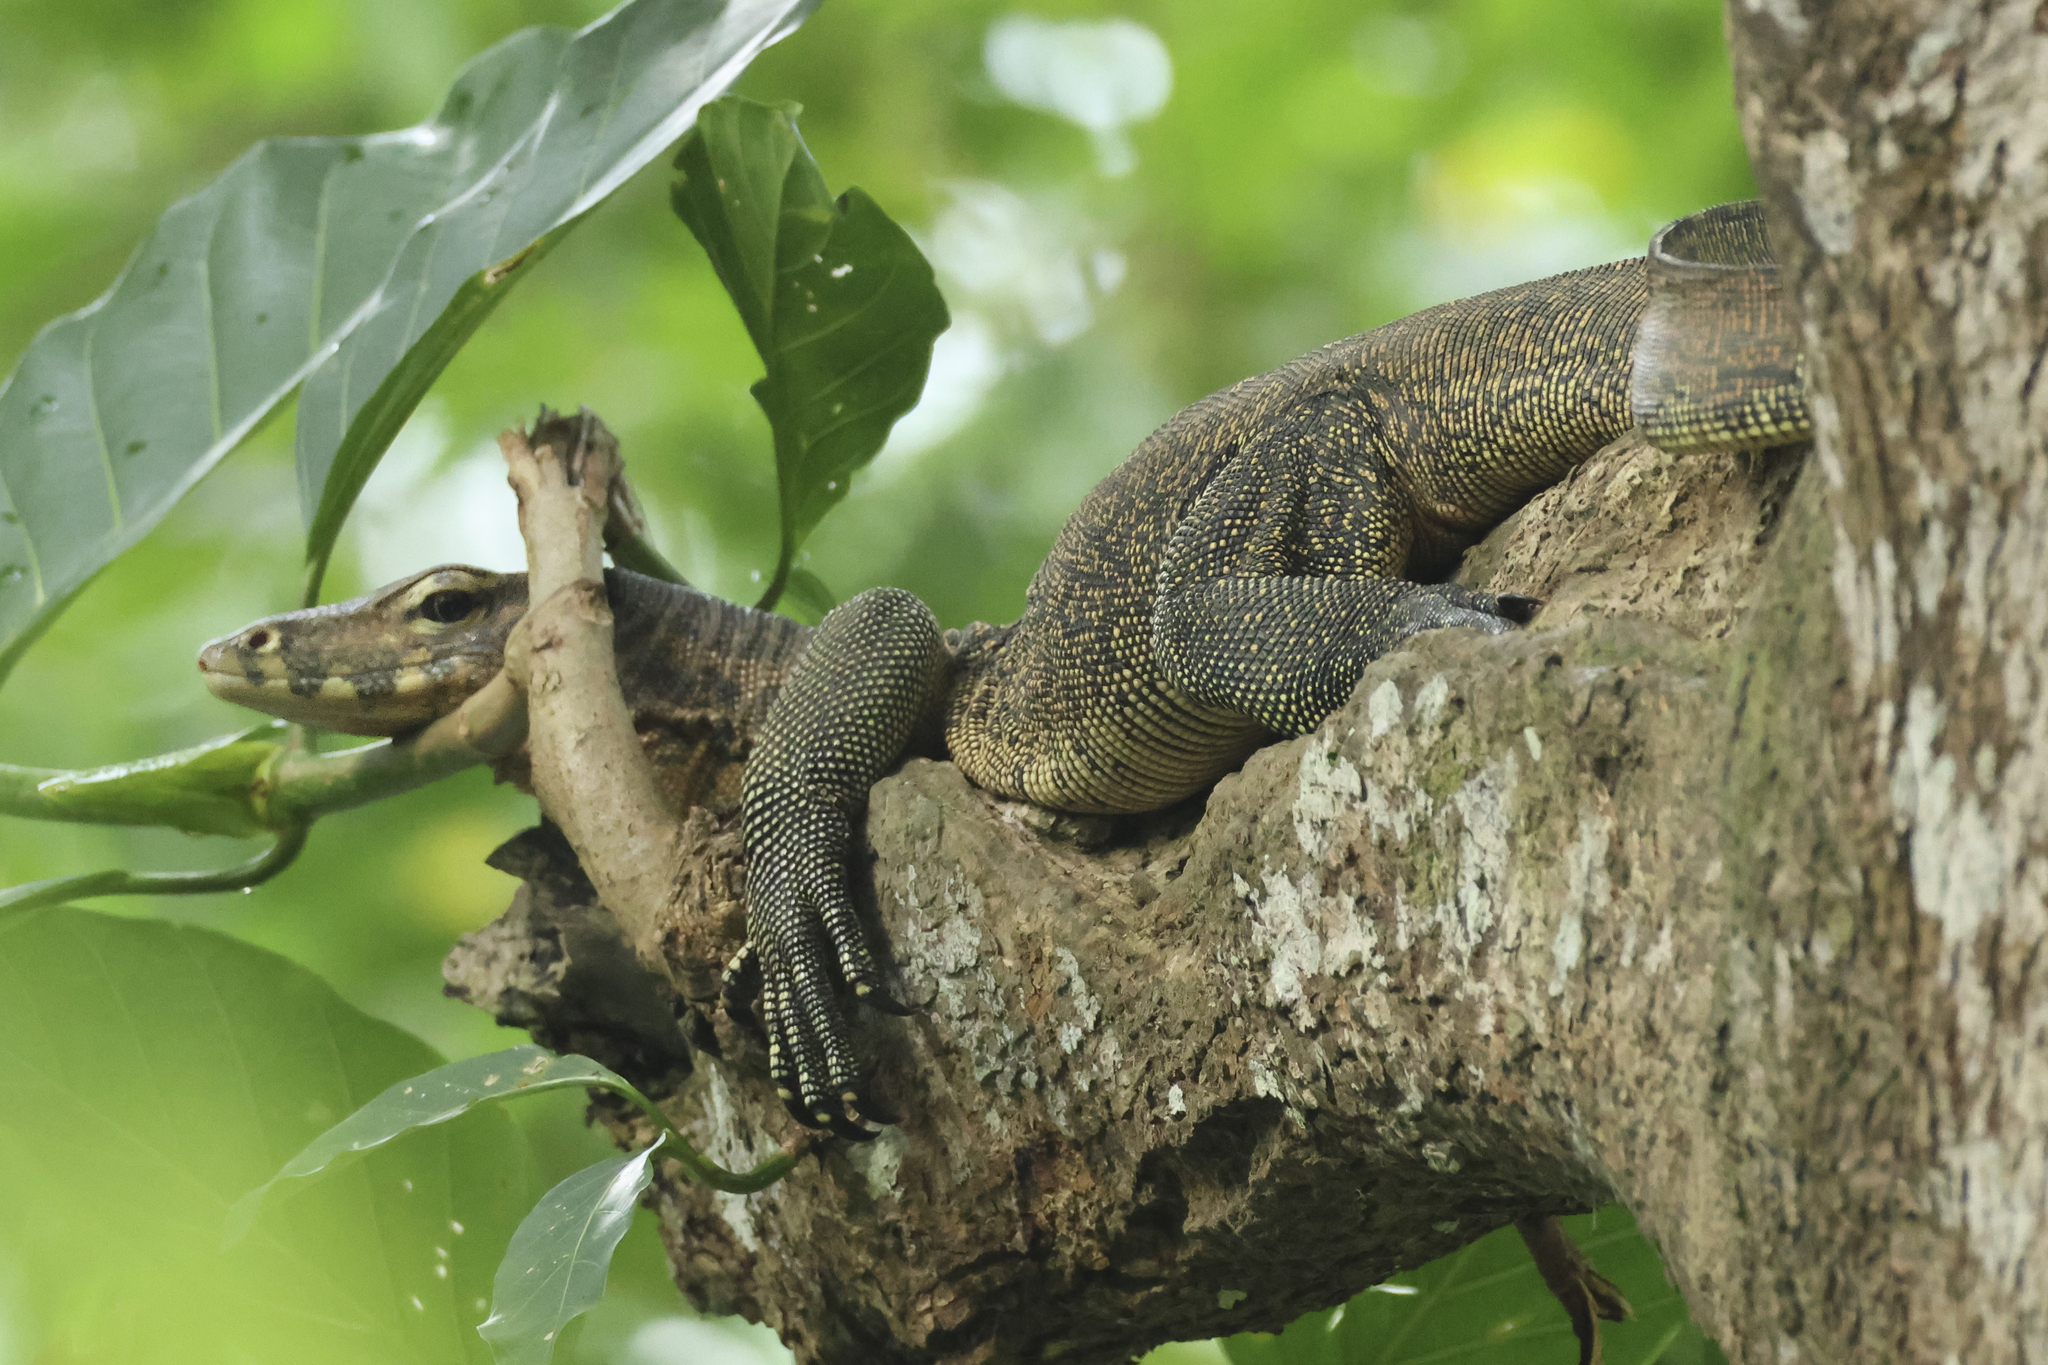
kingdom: Animalia
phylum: Chordata
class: Squamata
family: Varanidae
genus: Varanus
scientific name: Varanus salvator
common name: Common water monitor
